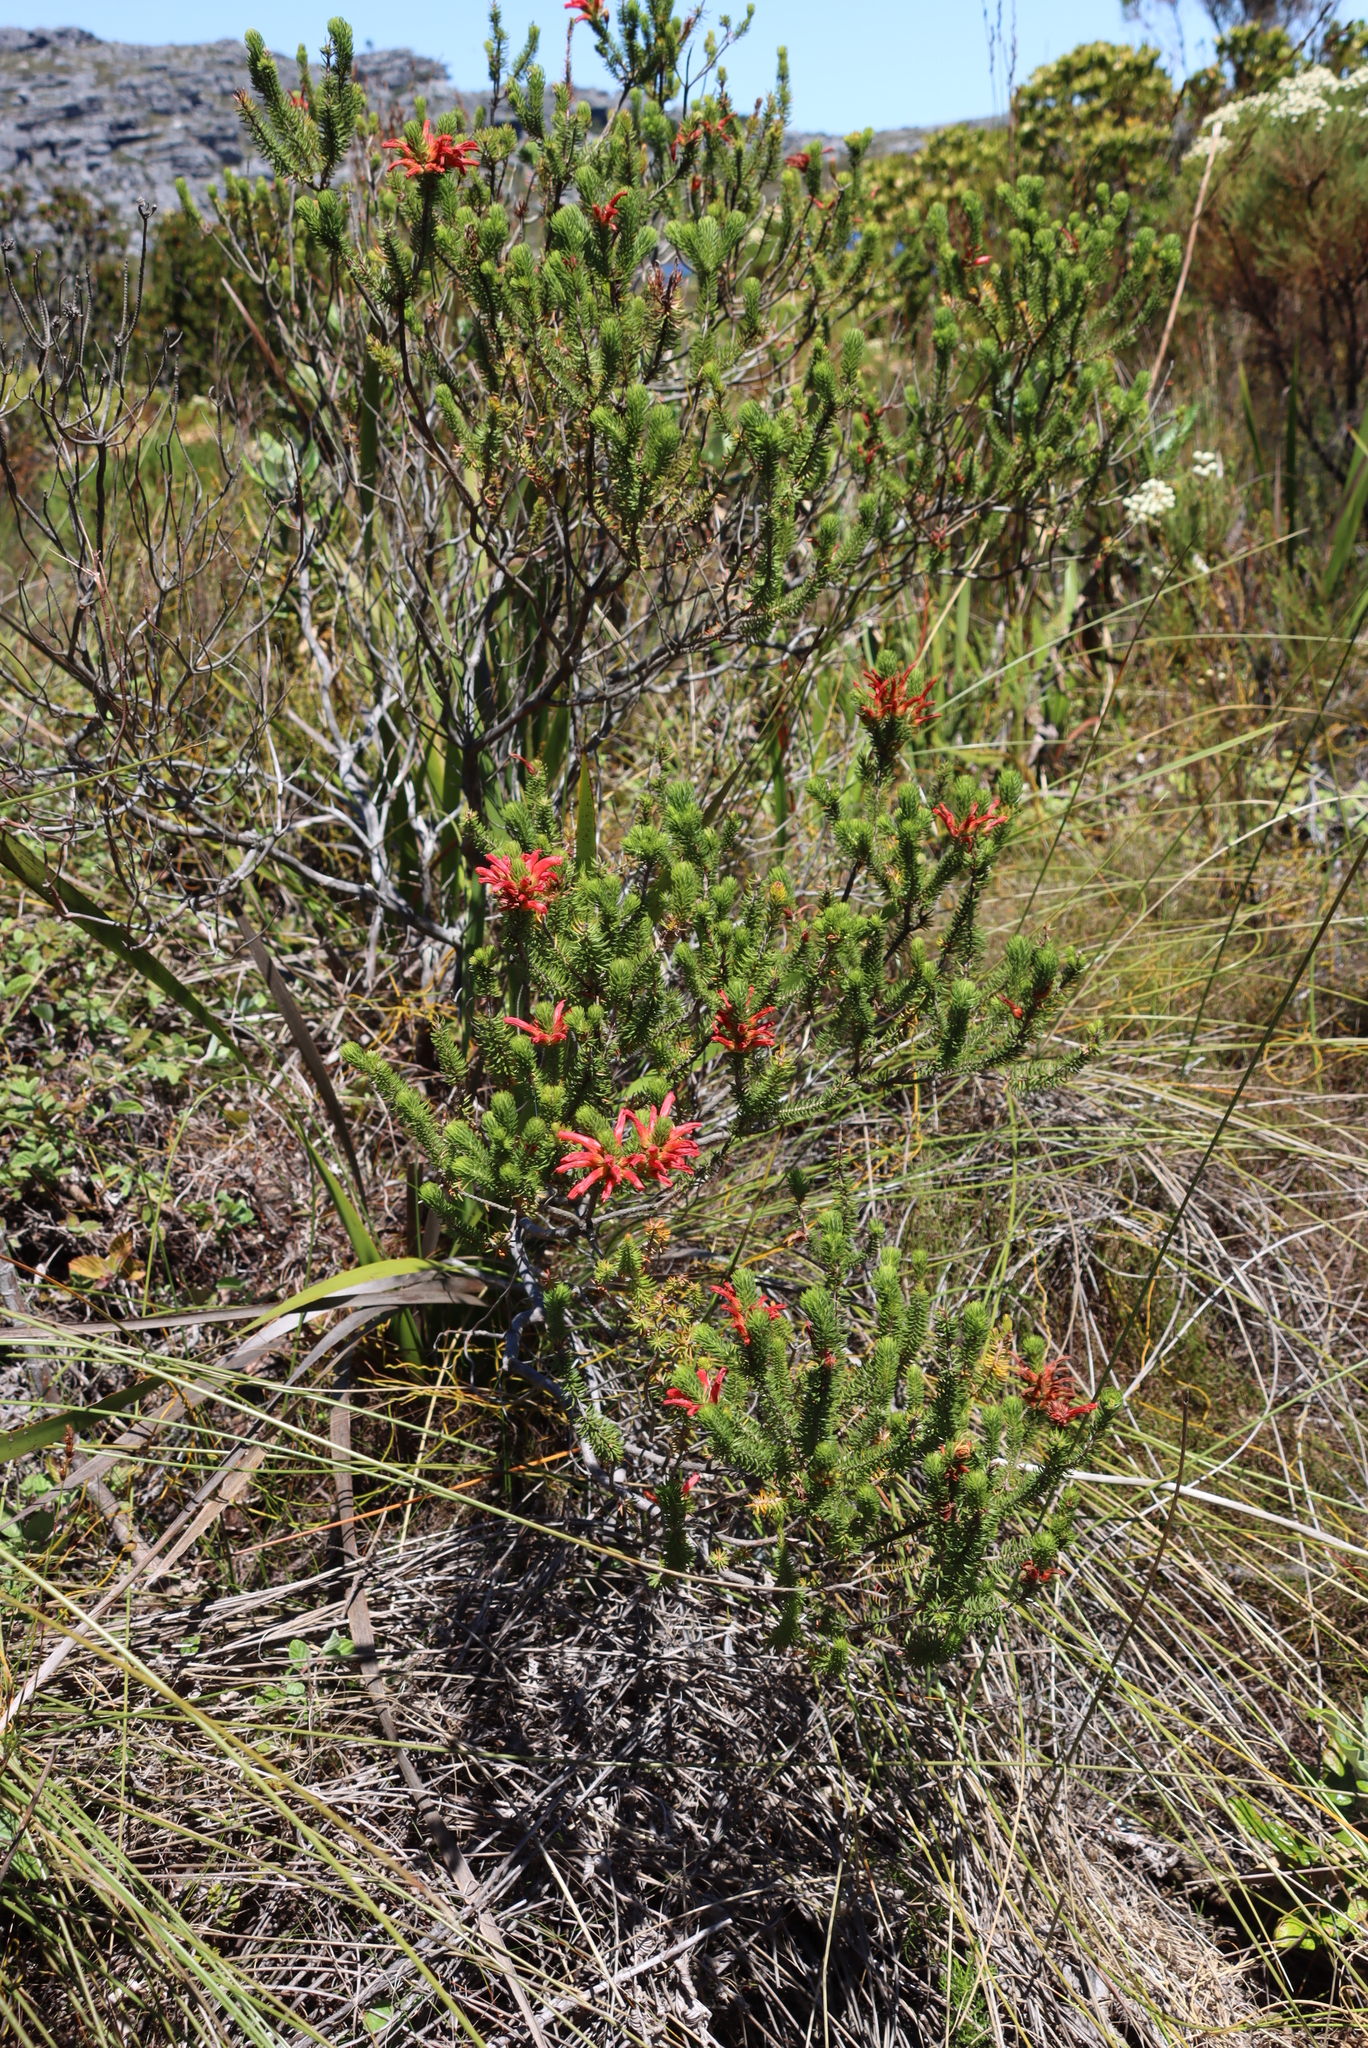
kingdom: Plantae
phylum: Tracheophyta
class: Magnoliopsida
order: Ericales
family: Ericaceae
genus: Erica
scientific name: Erica abietina
